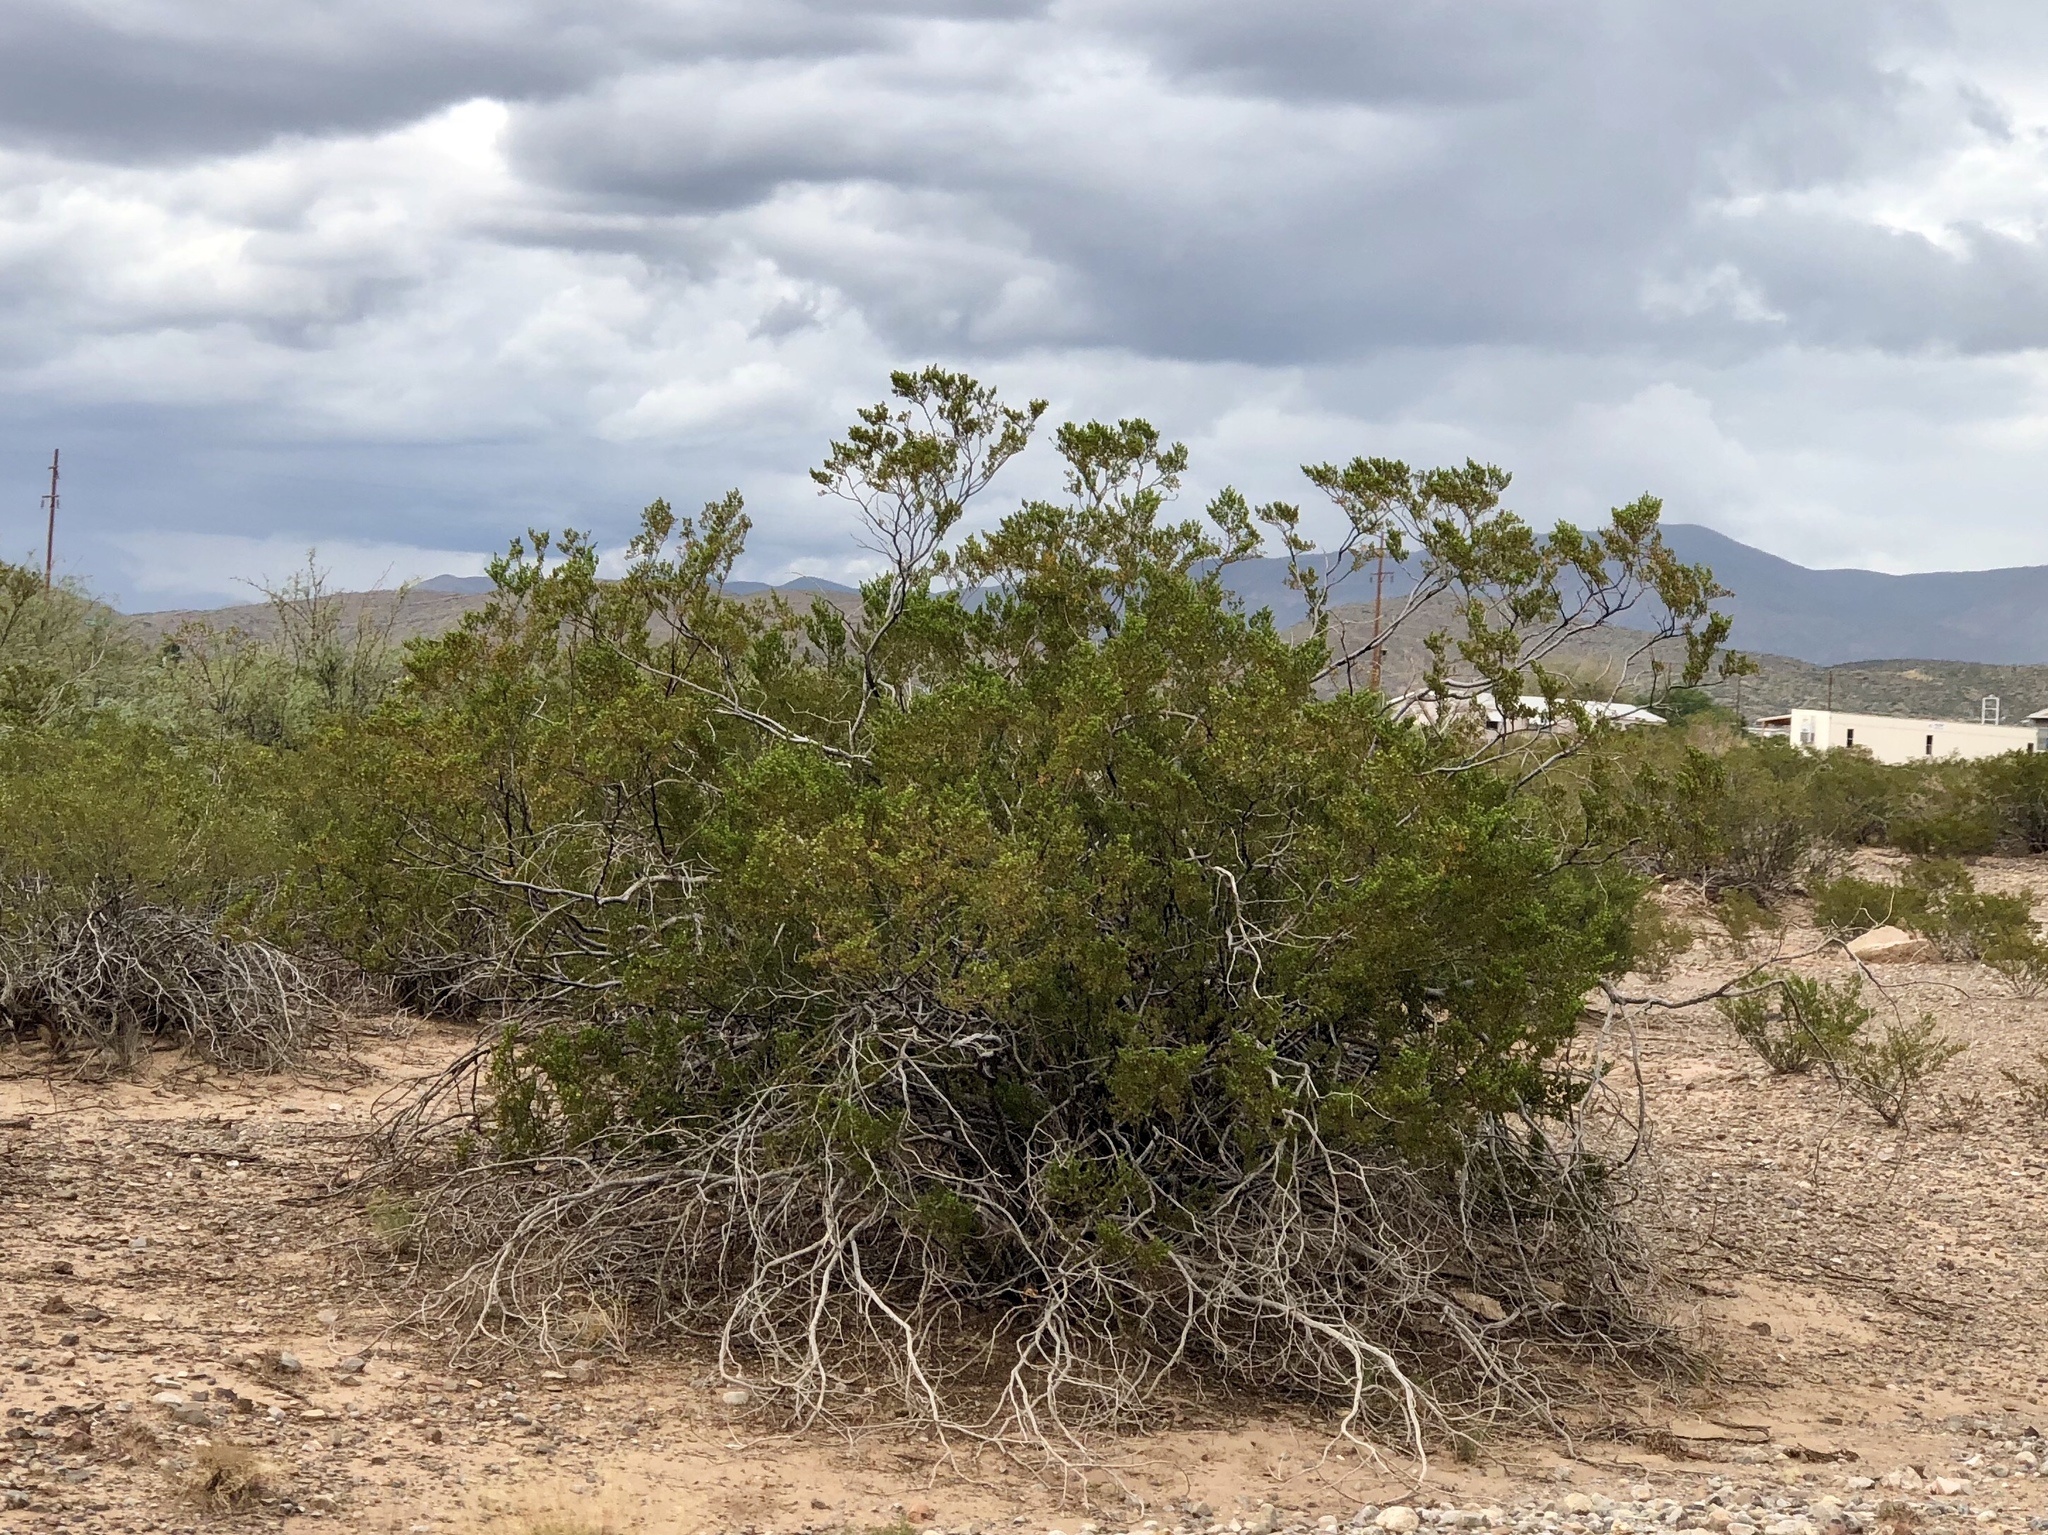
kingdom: Plantae
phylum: Tracheophyta
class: Magnoliopsida
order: Zygophyllales
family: Zygophyllaceae
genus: Larrea
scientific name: Larrea tridentata
